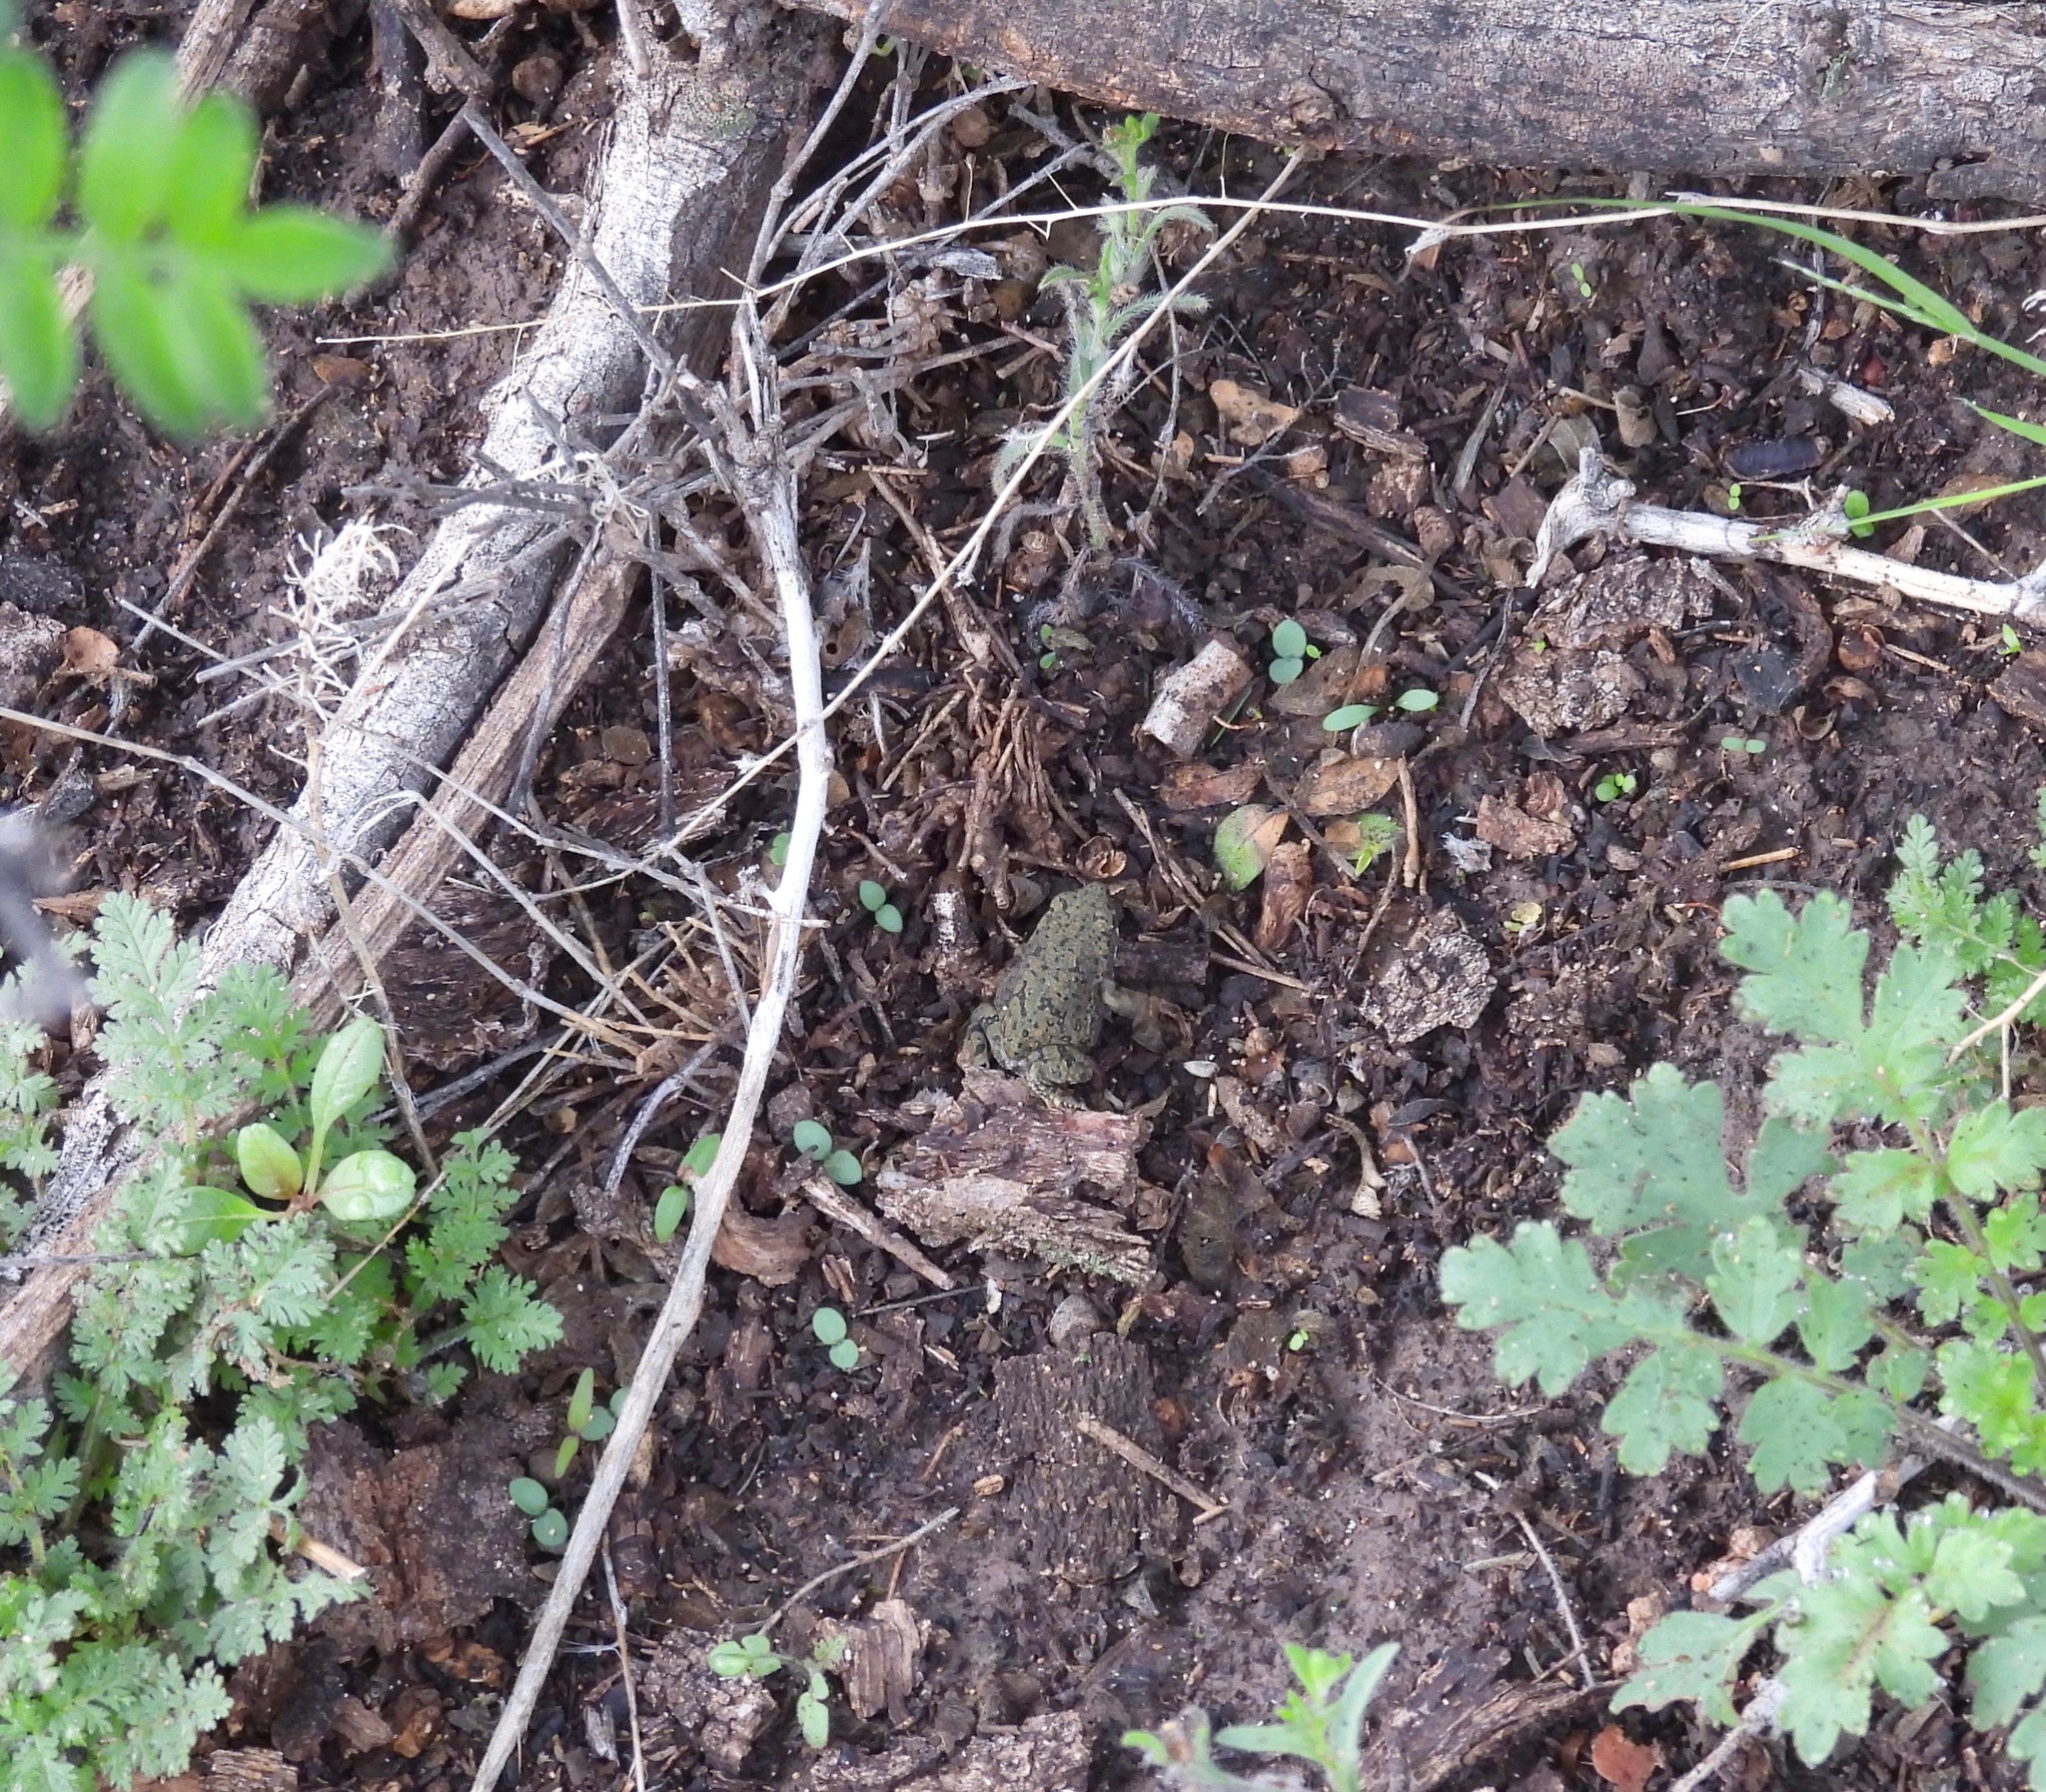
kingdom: Animalia
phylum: Chordata
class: Amphibia
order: Anura
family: Bufonidae
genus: Anaxyrus
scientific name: Anaxyrus debilis
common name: Green toad
